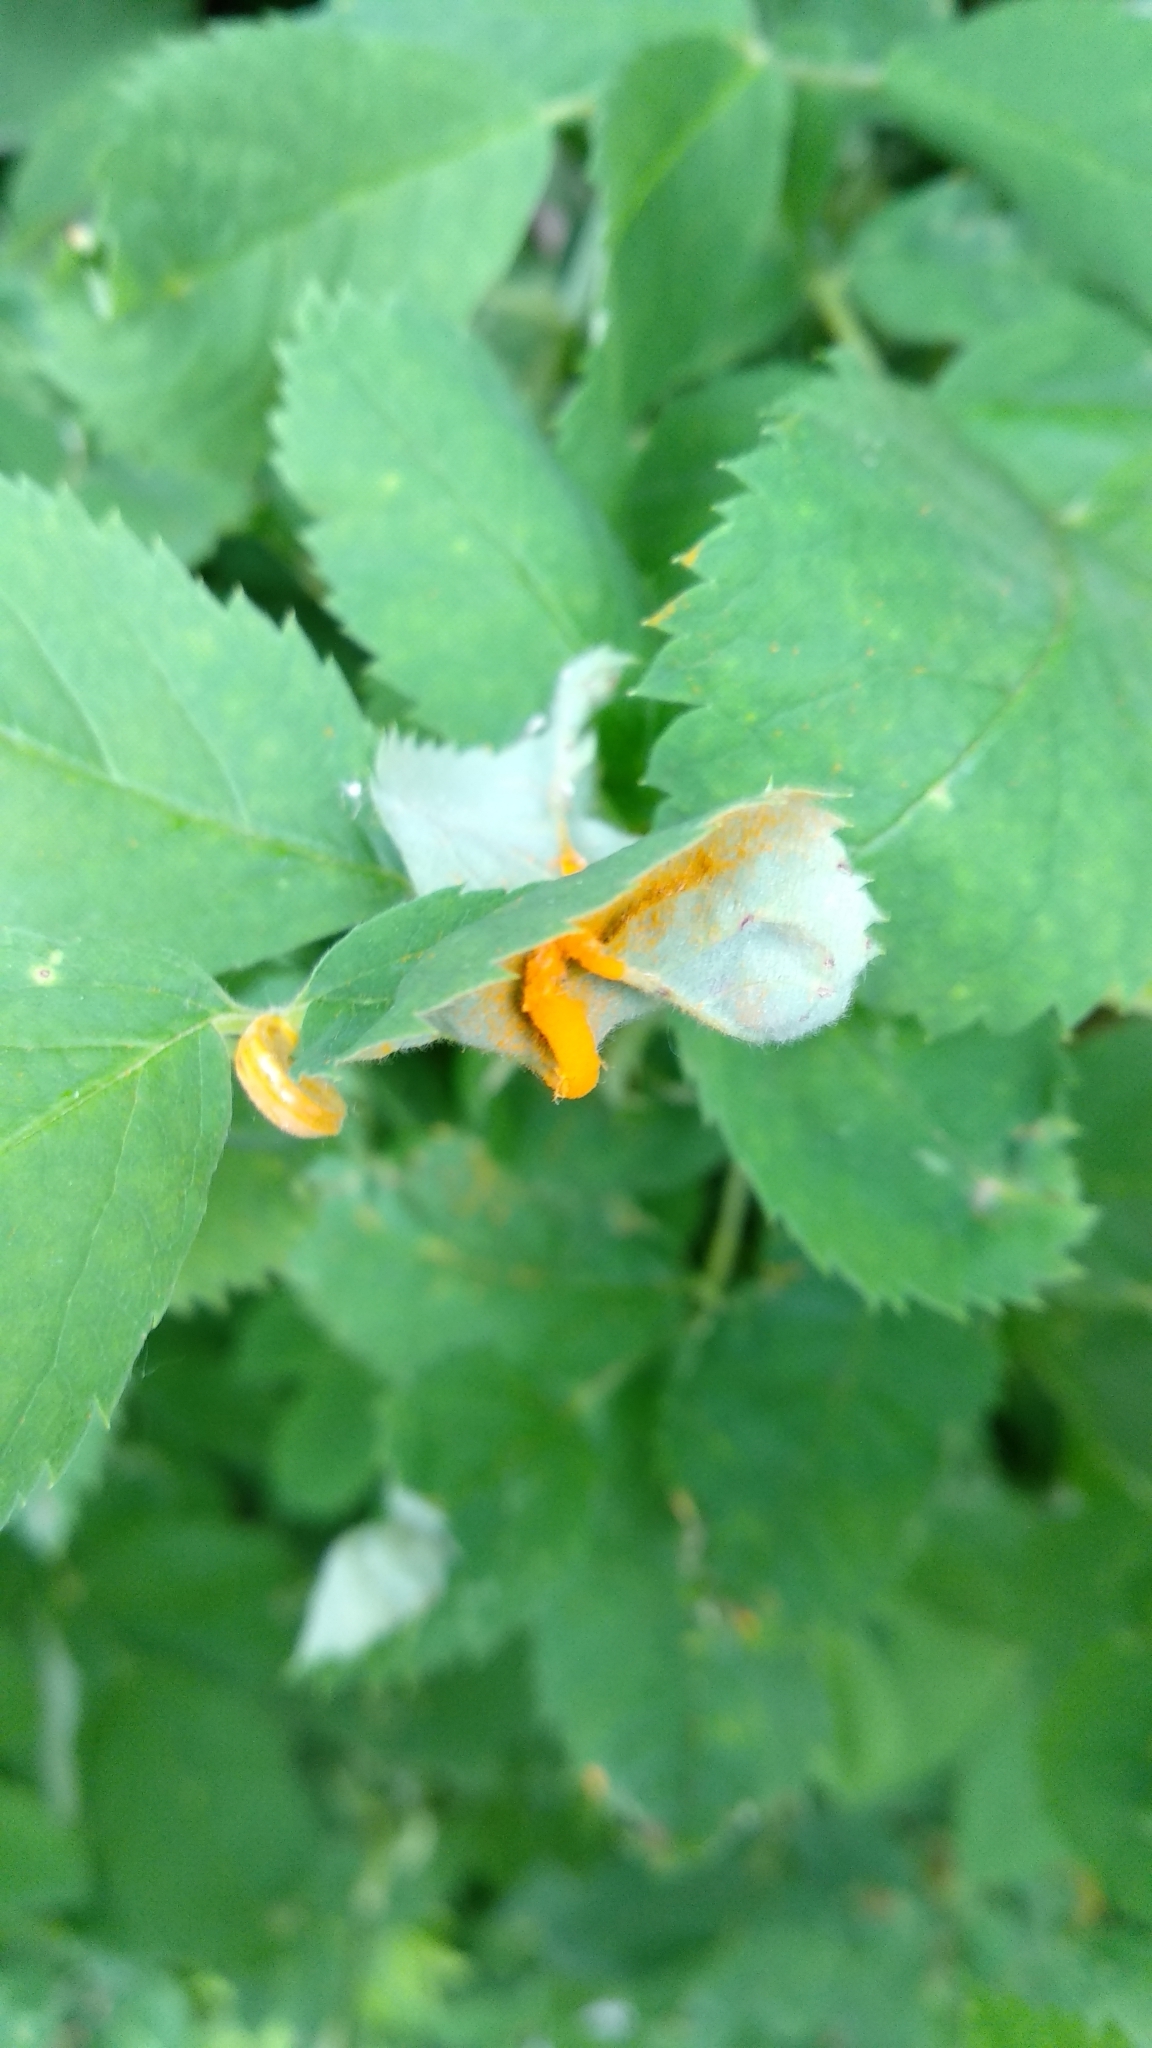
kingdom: Fungi
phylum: Basidiomycota
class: Pucciniomycetes
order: Pucciniales
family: Raveneliaceae
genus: Triphragmium
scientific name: Triphragmium ulmariae
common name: Meadowsweet rust
